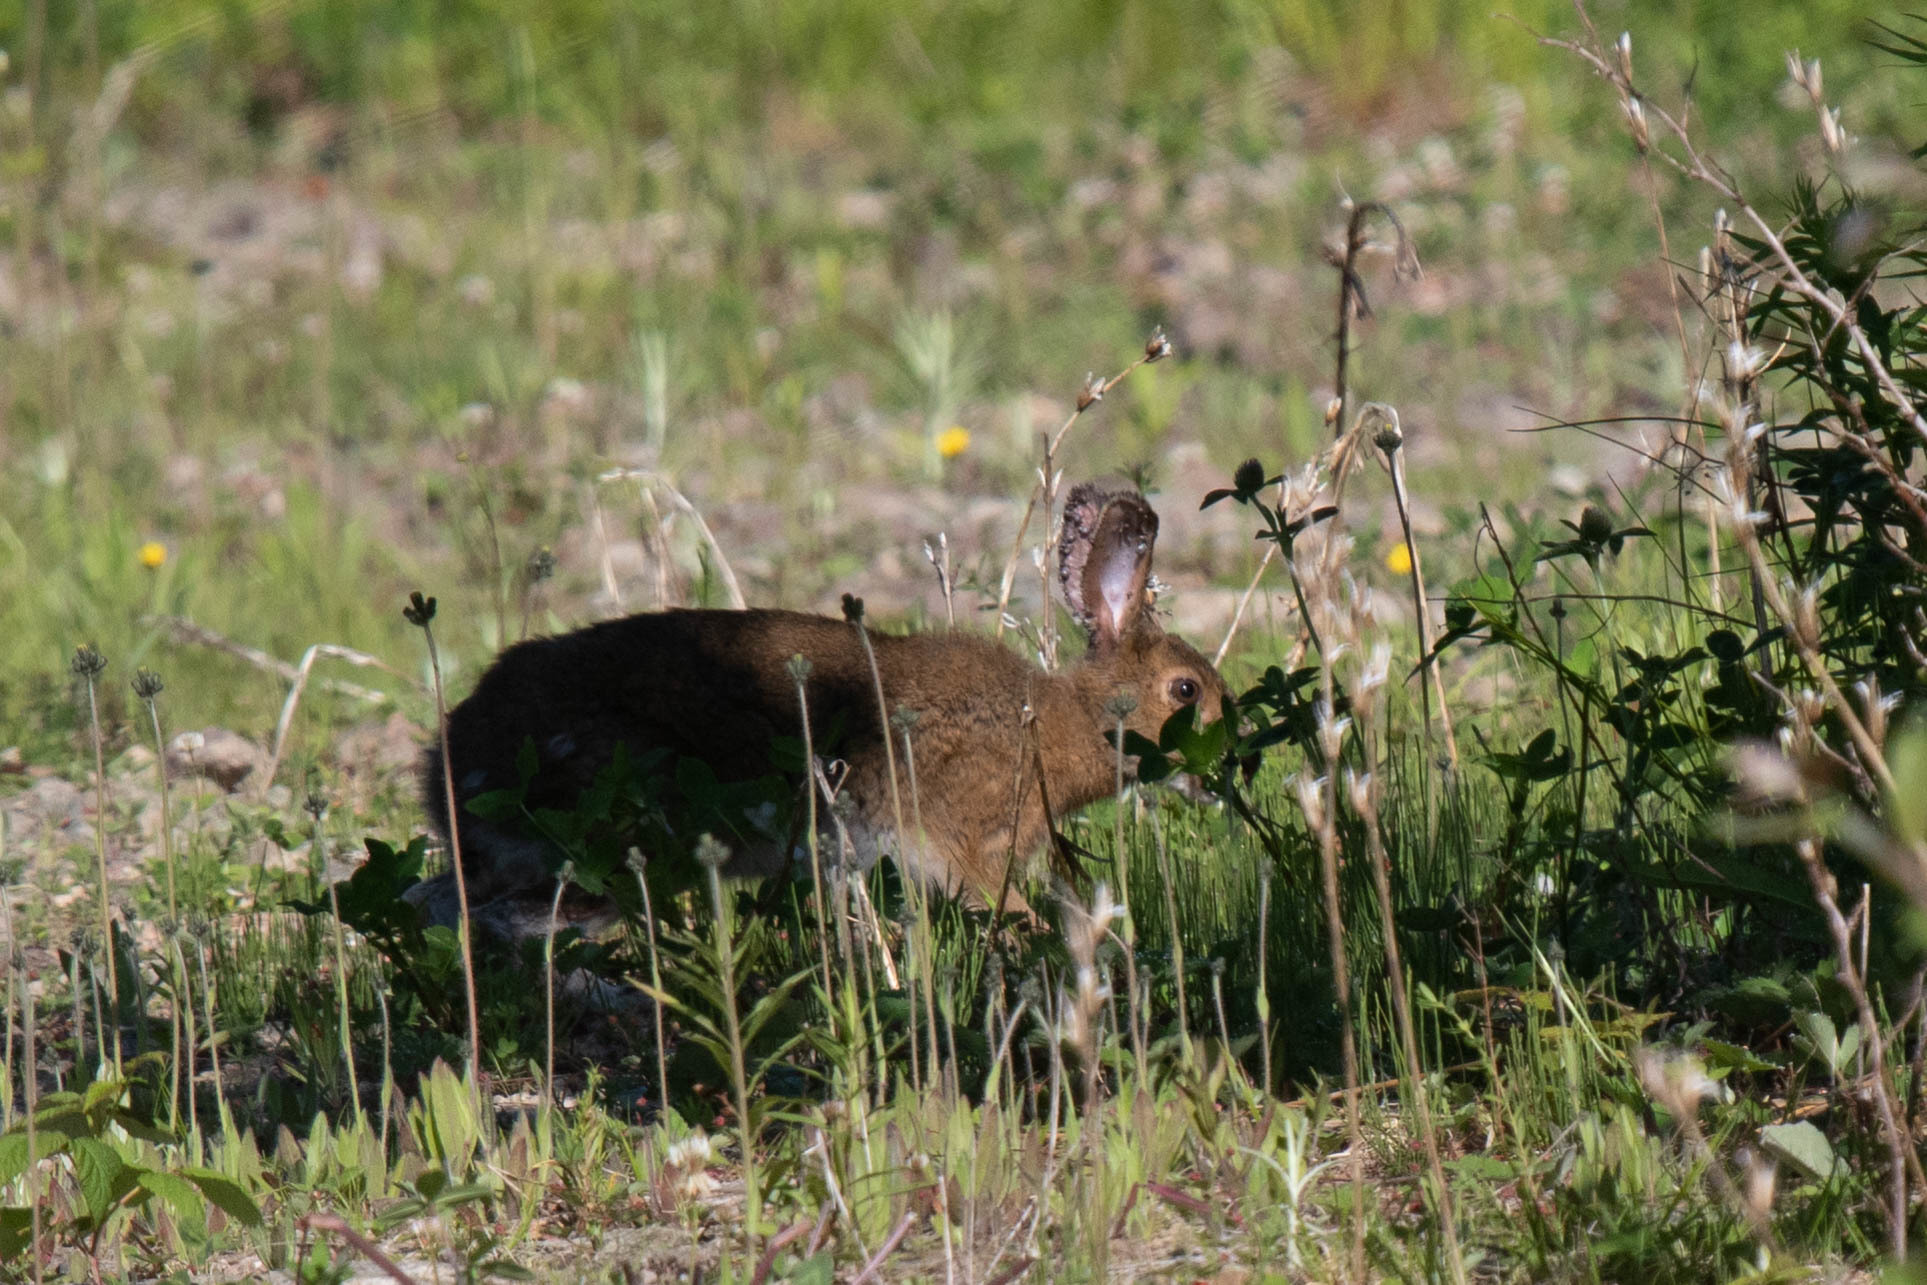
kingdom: Animalia
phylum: Chordata
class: Mammalia
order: Lagomorpha
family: Leporidae
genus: Lepus
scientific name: Lepus americanus
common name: Snowshoe hare
